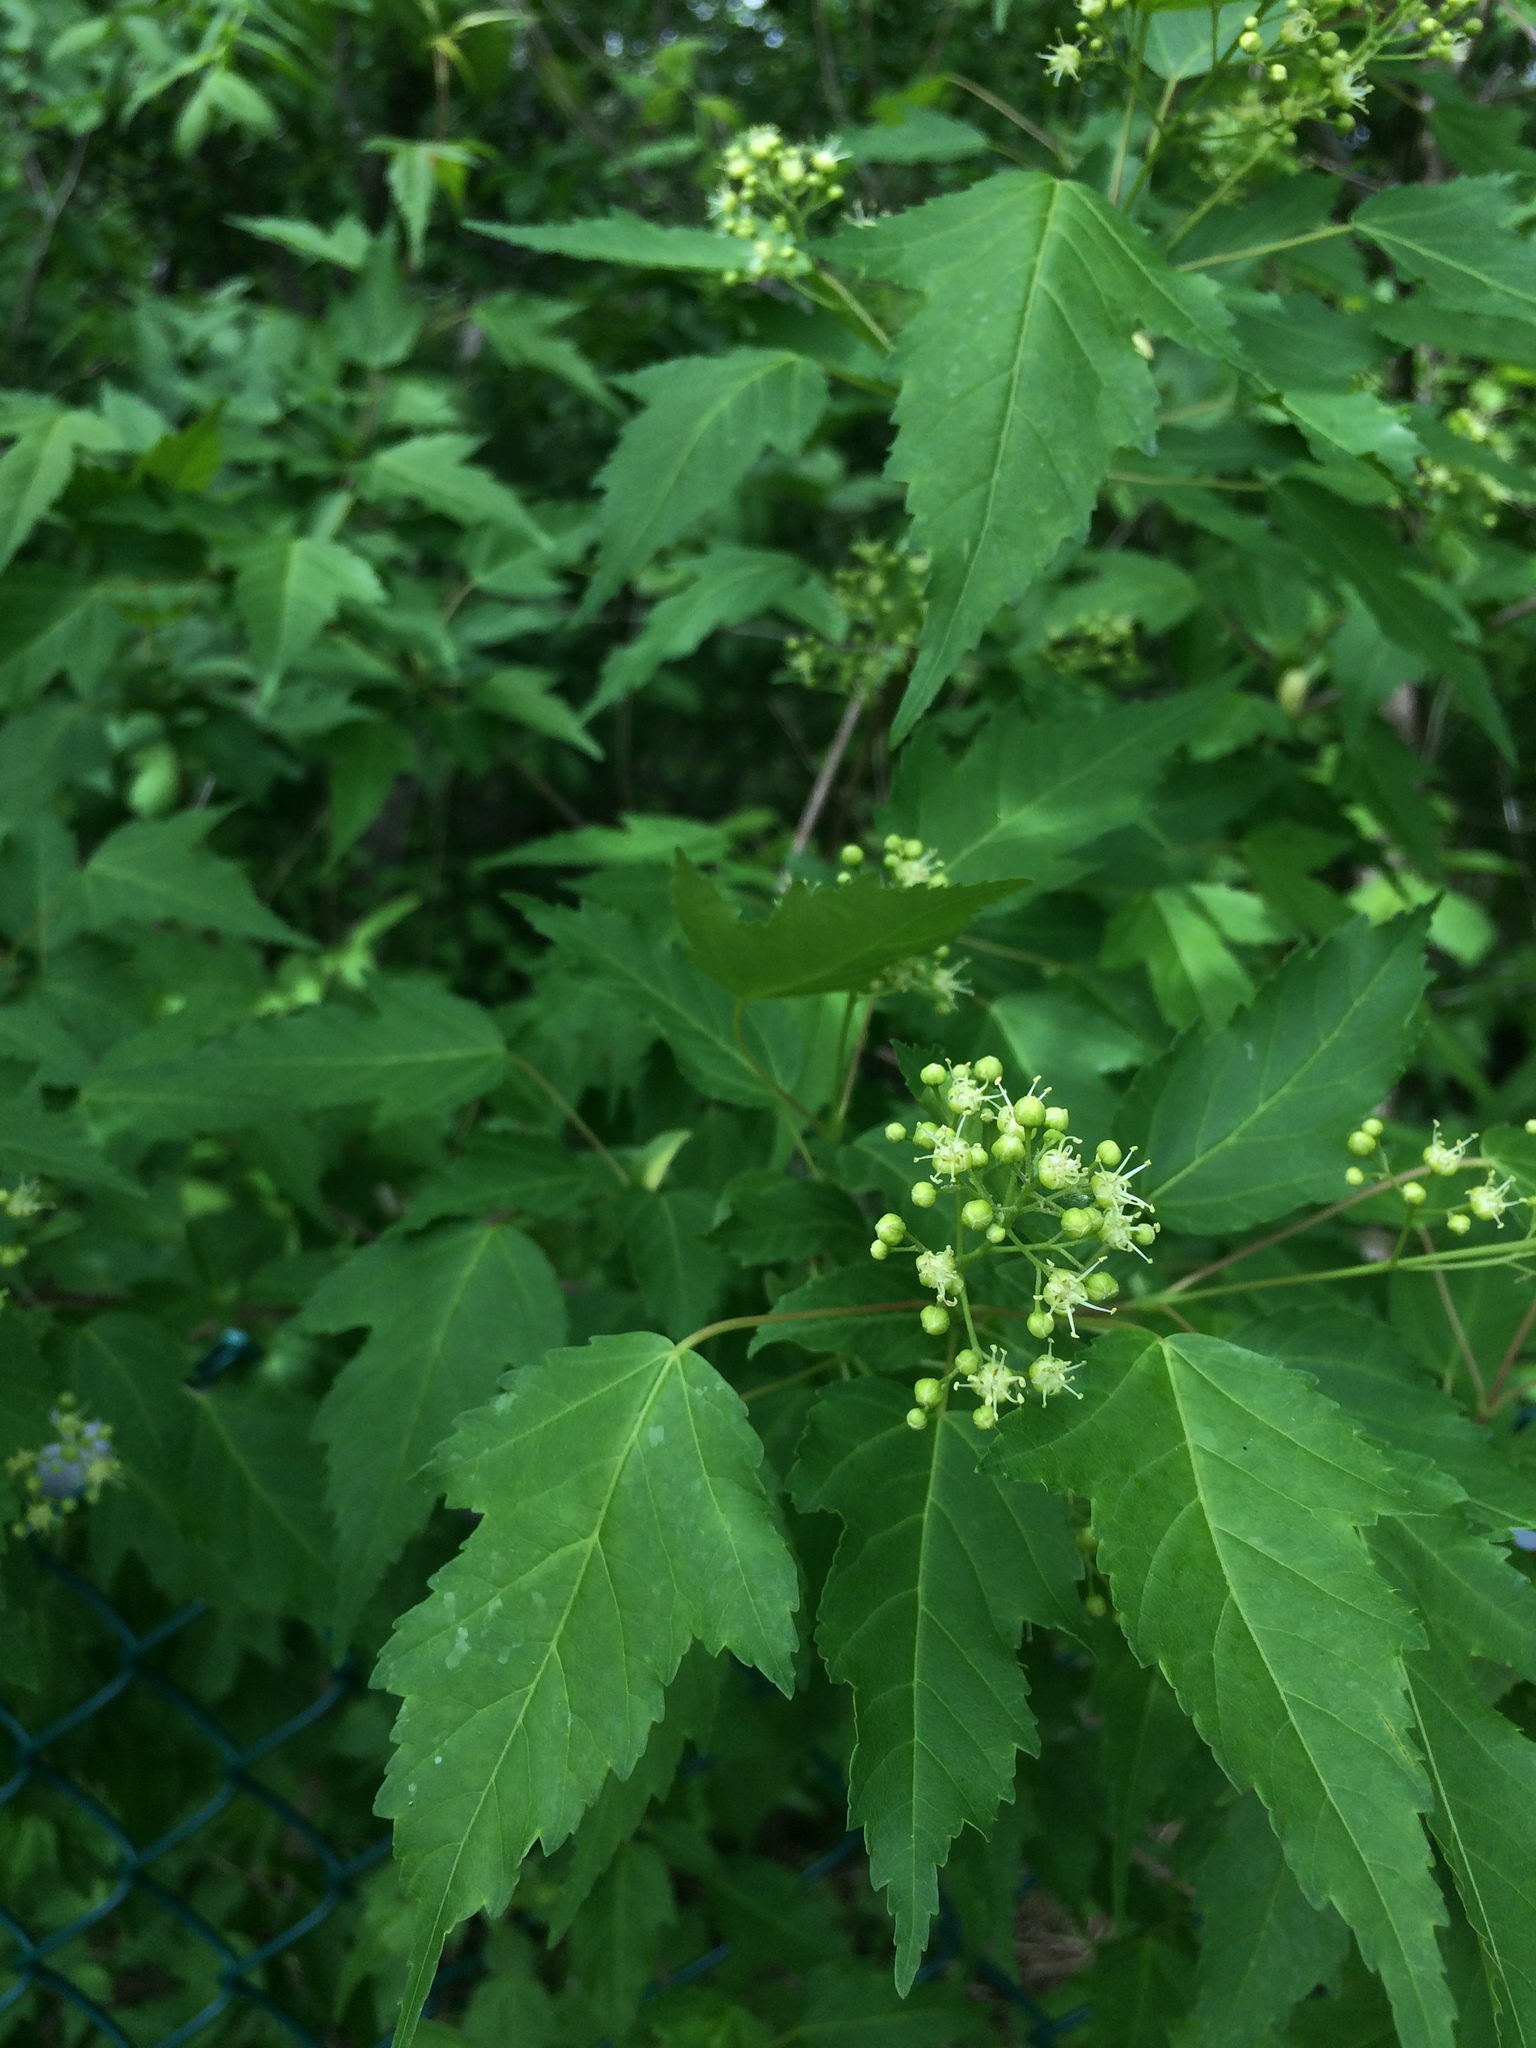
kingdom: Plantae
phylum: Tracheophyta
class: Magnoliopsida
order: Sapindales
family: Sapindaceae
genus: Acer
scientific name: Acer tataricum
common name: Tartar maple
